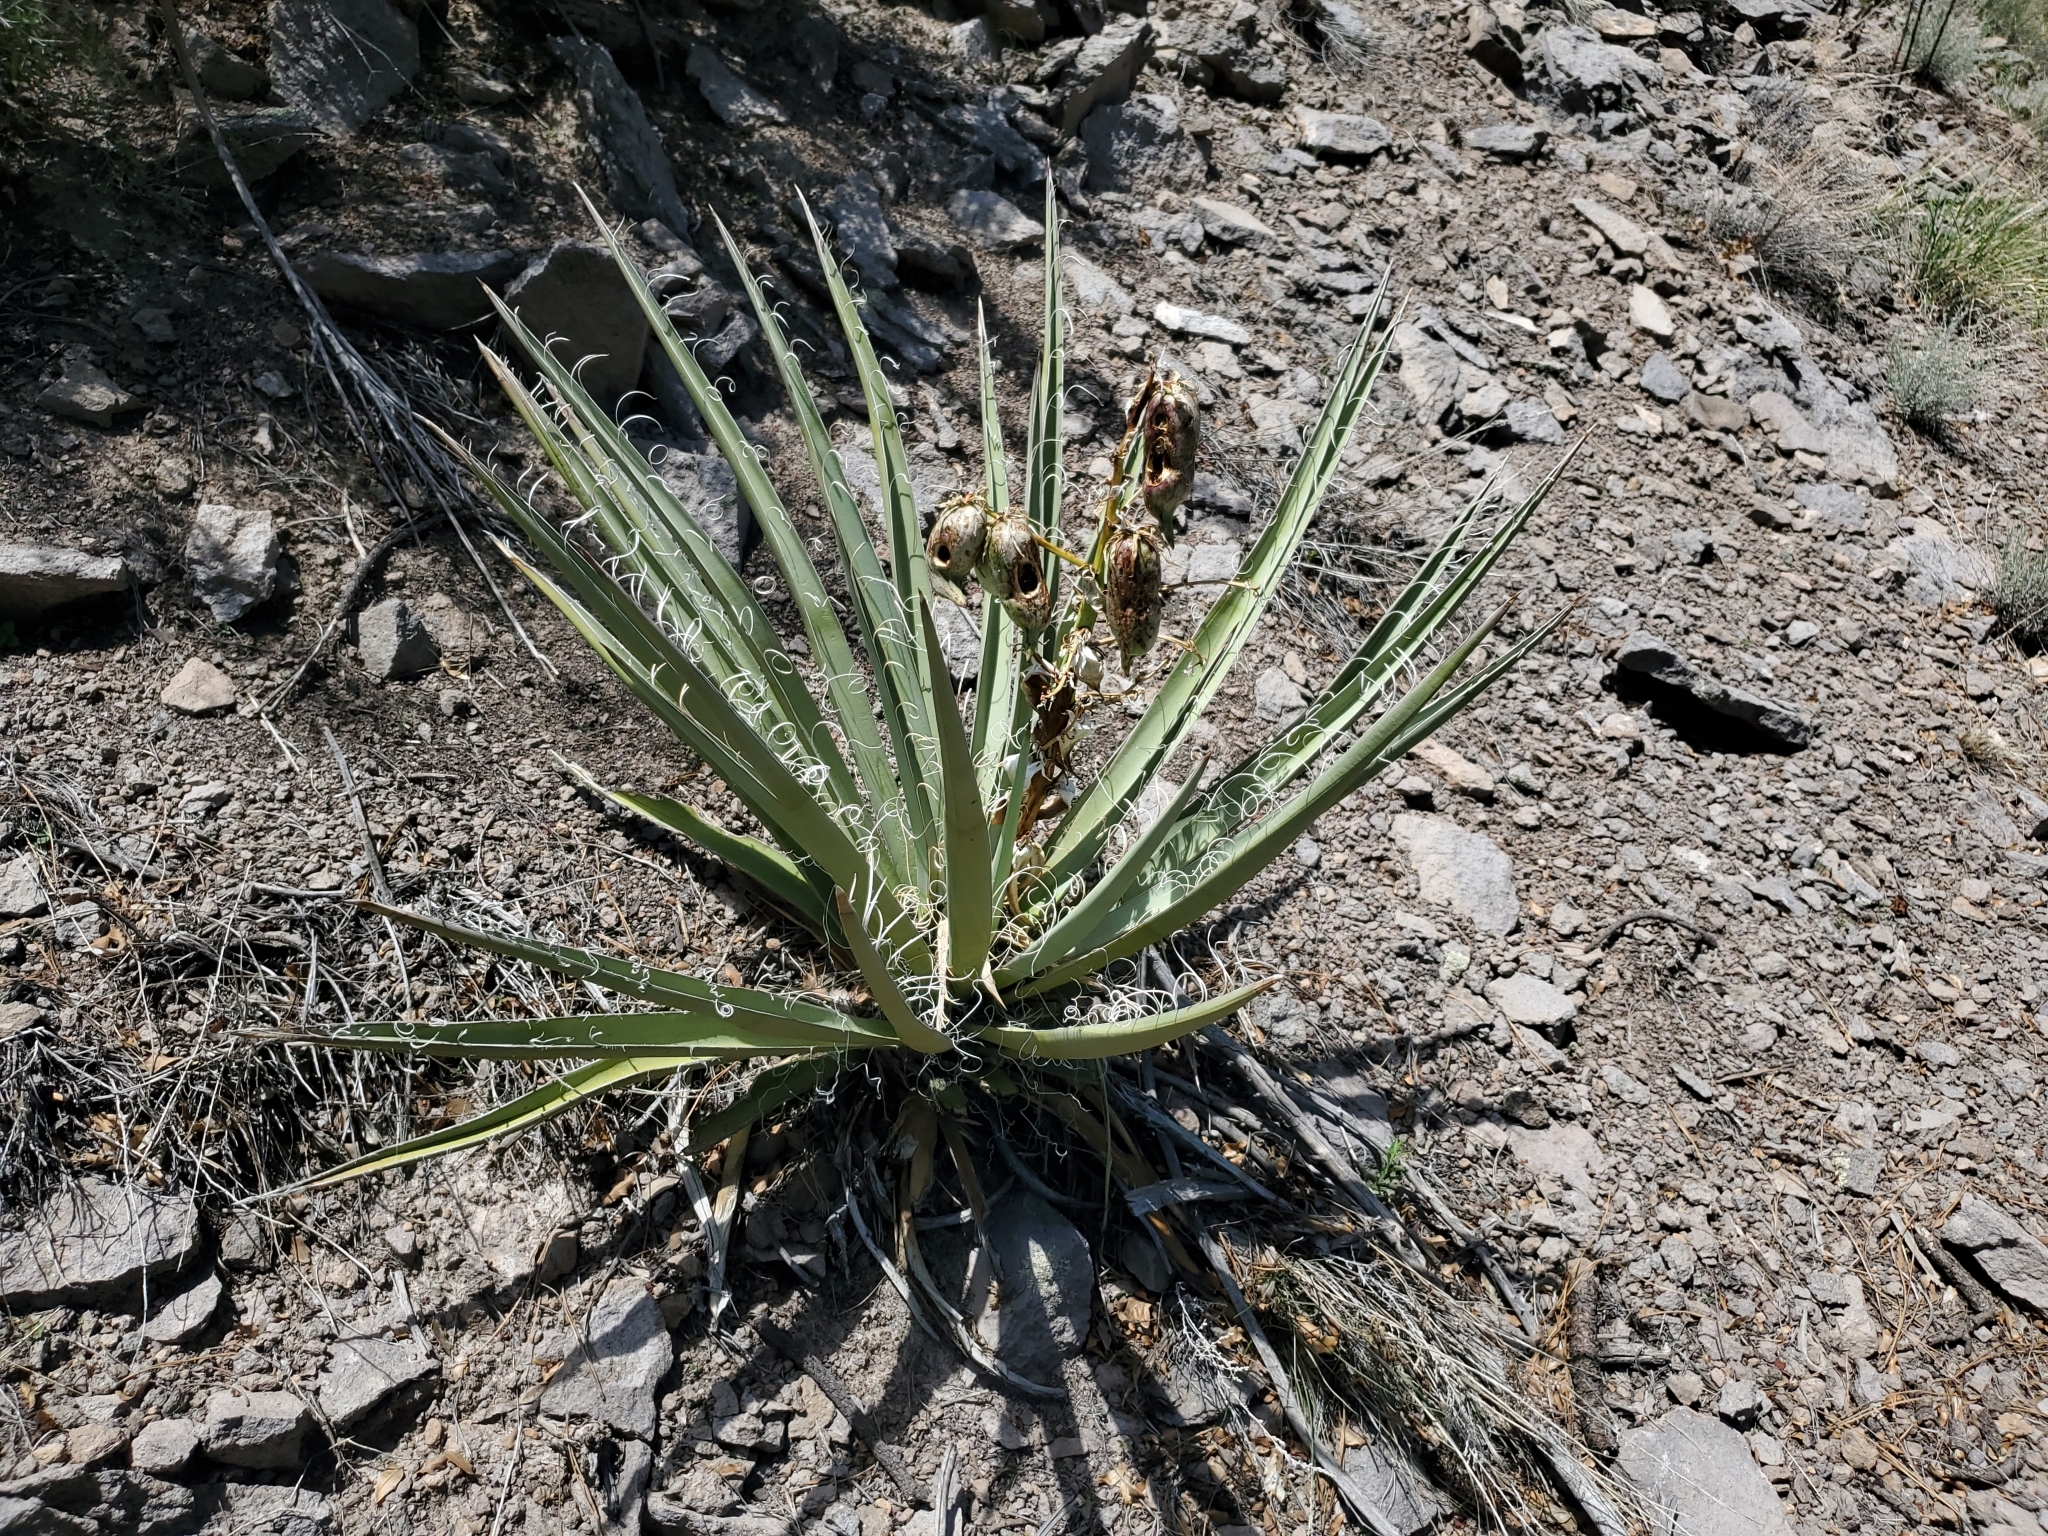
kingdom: Plantae
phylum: Tracheophyta
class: Liliopsida
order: Asparagales
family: Asparagaceae
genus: Yucca
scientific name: Yucca baccata
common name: Banana yucca
